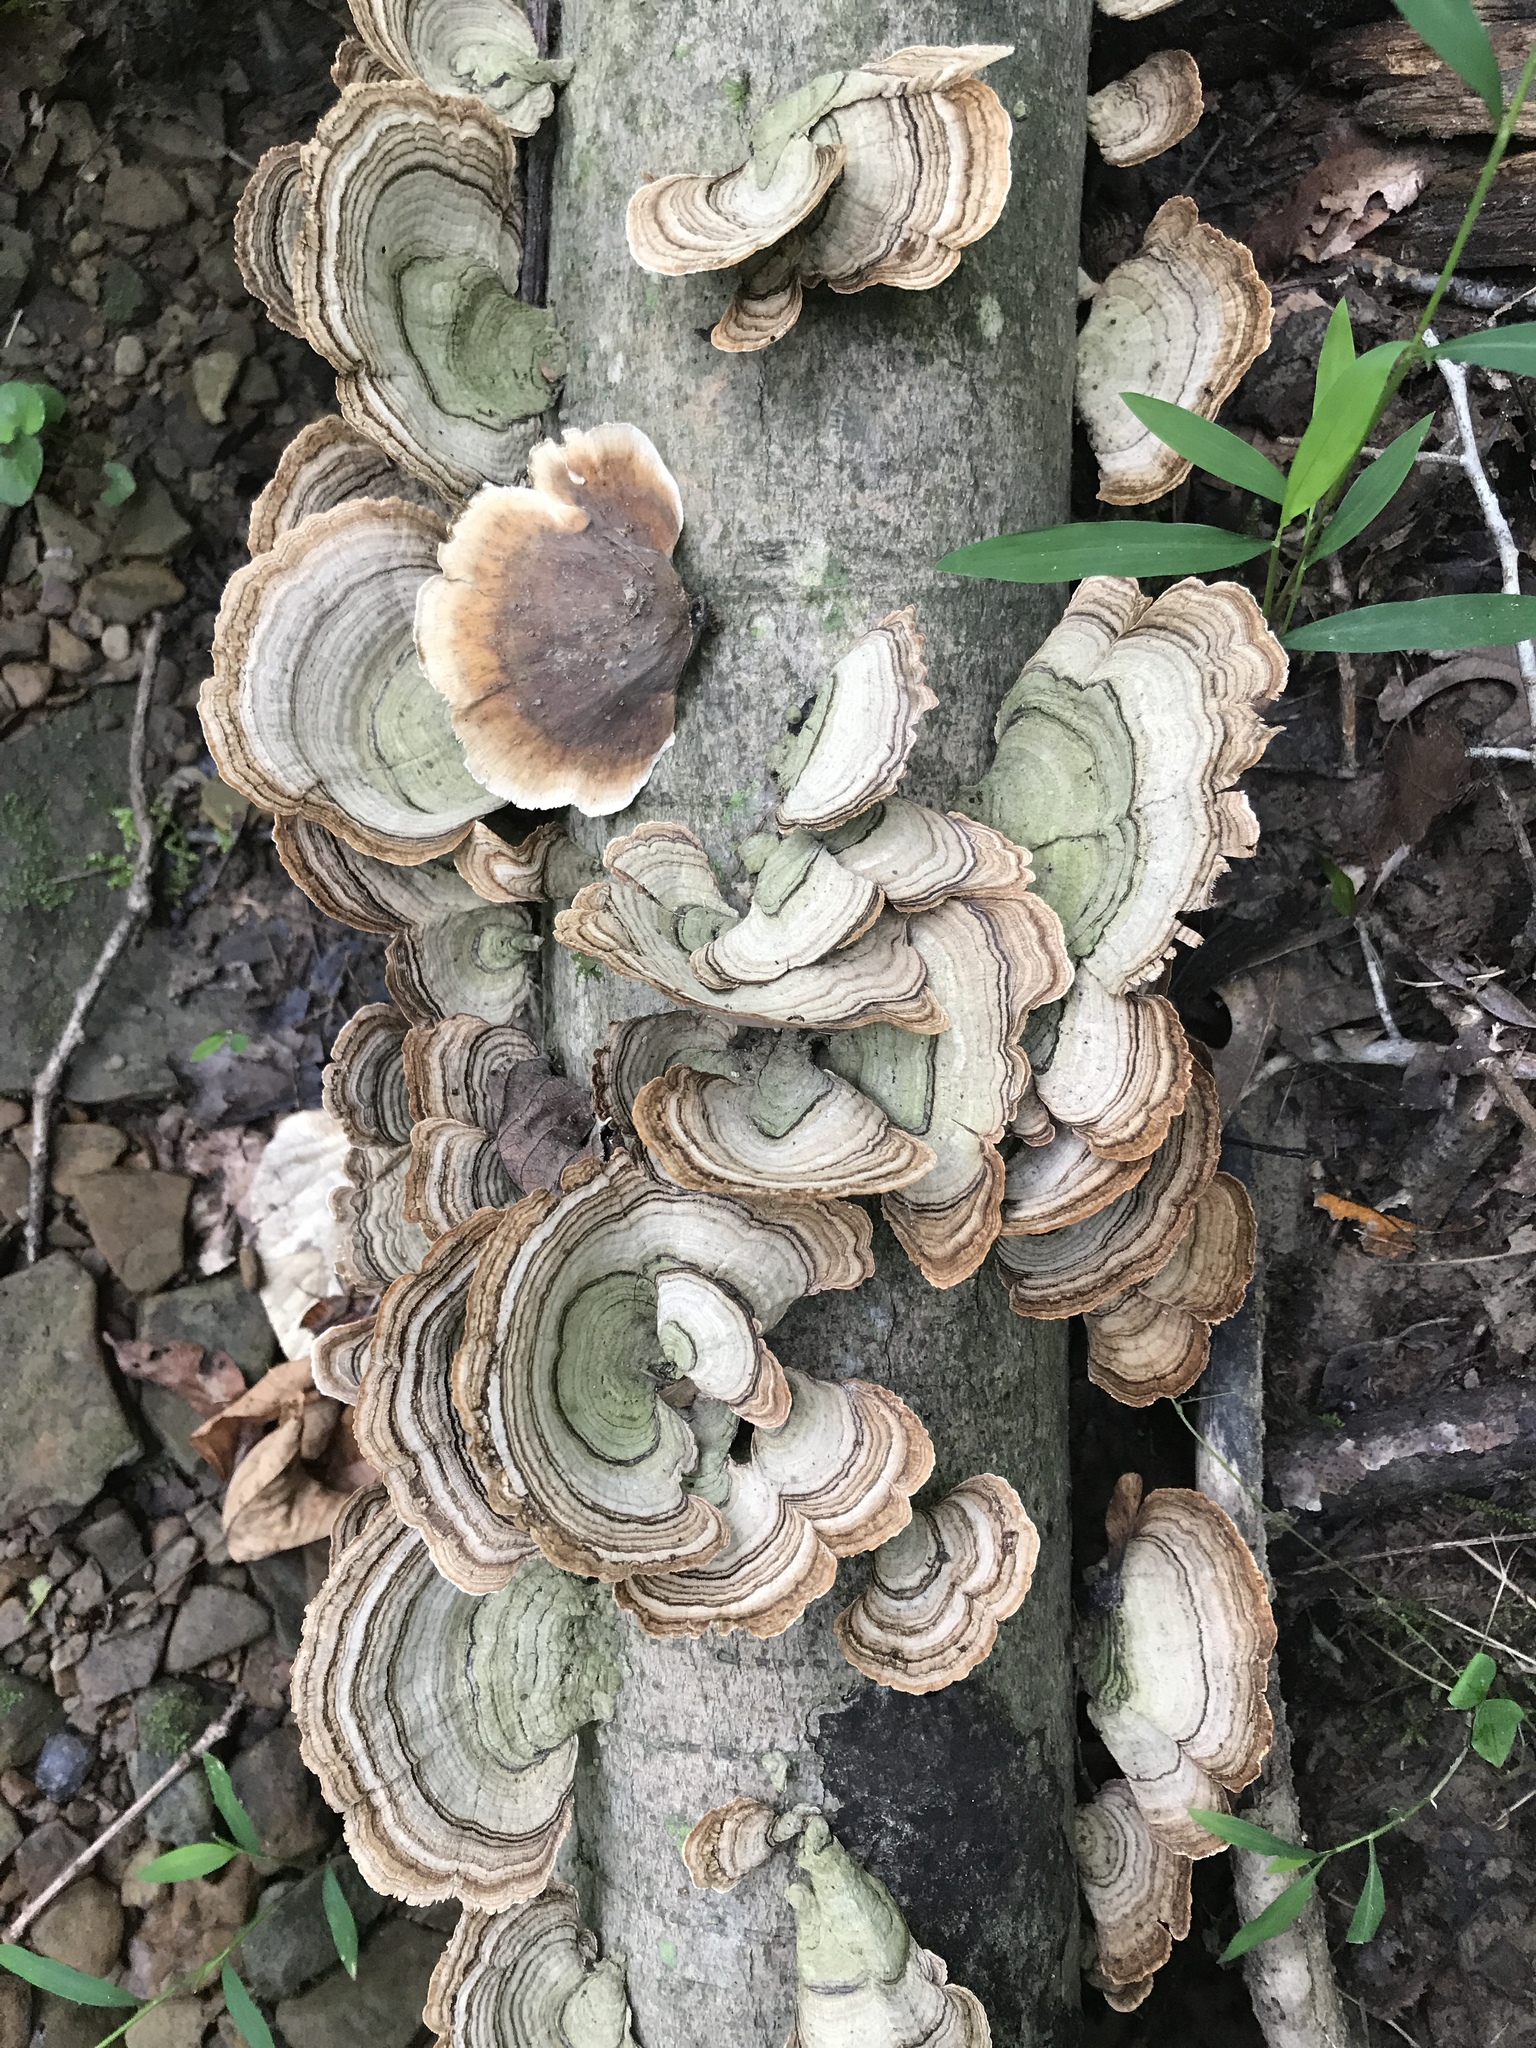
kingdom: Fungi
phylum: Basidiomycota
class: Agaricomycetes
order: Russulales
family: Stereaceae
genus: Stereum
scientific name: Stereum ostrea
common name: False turkeytail
